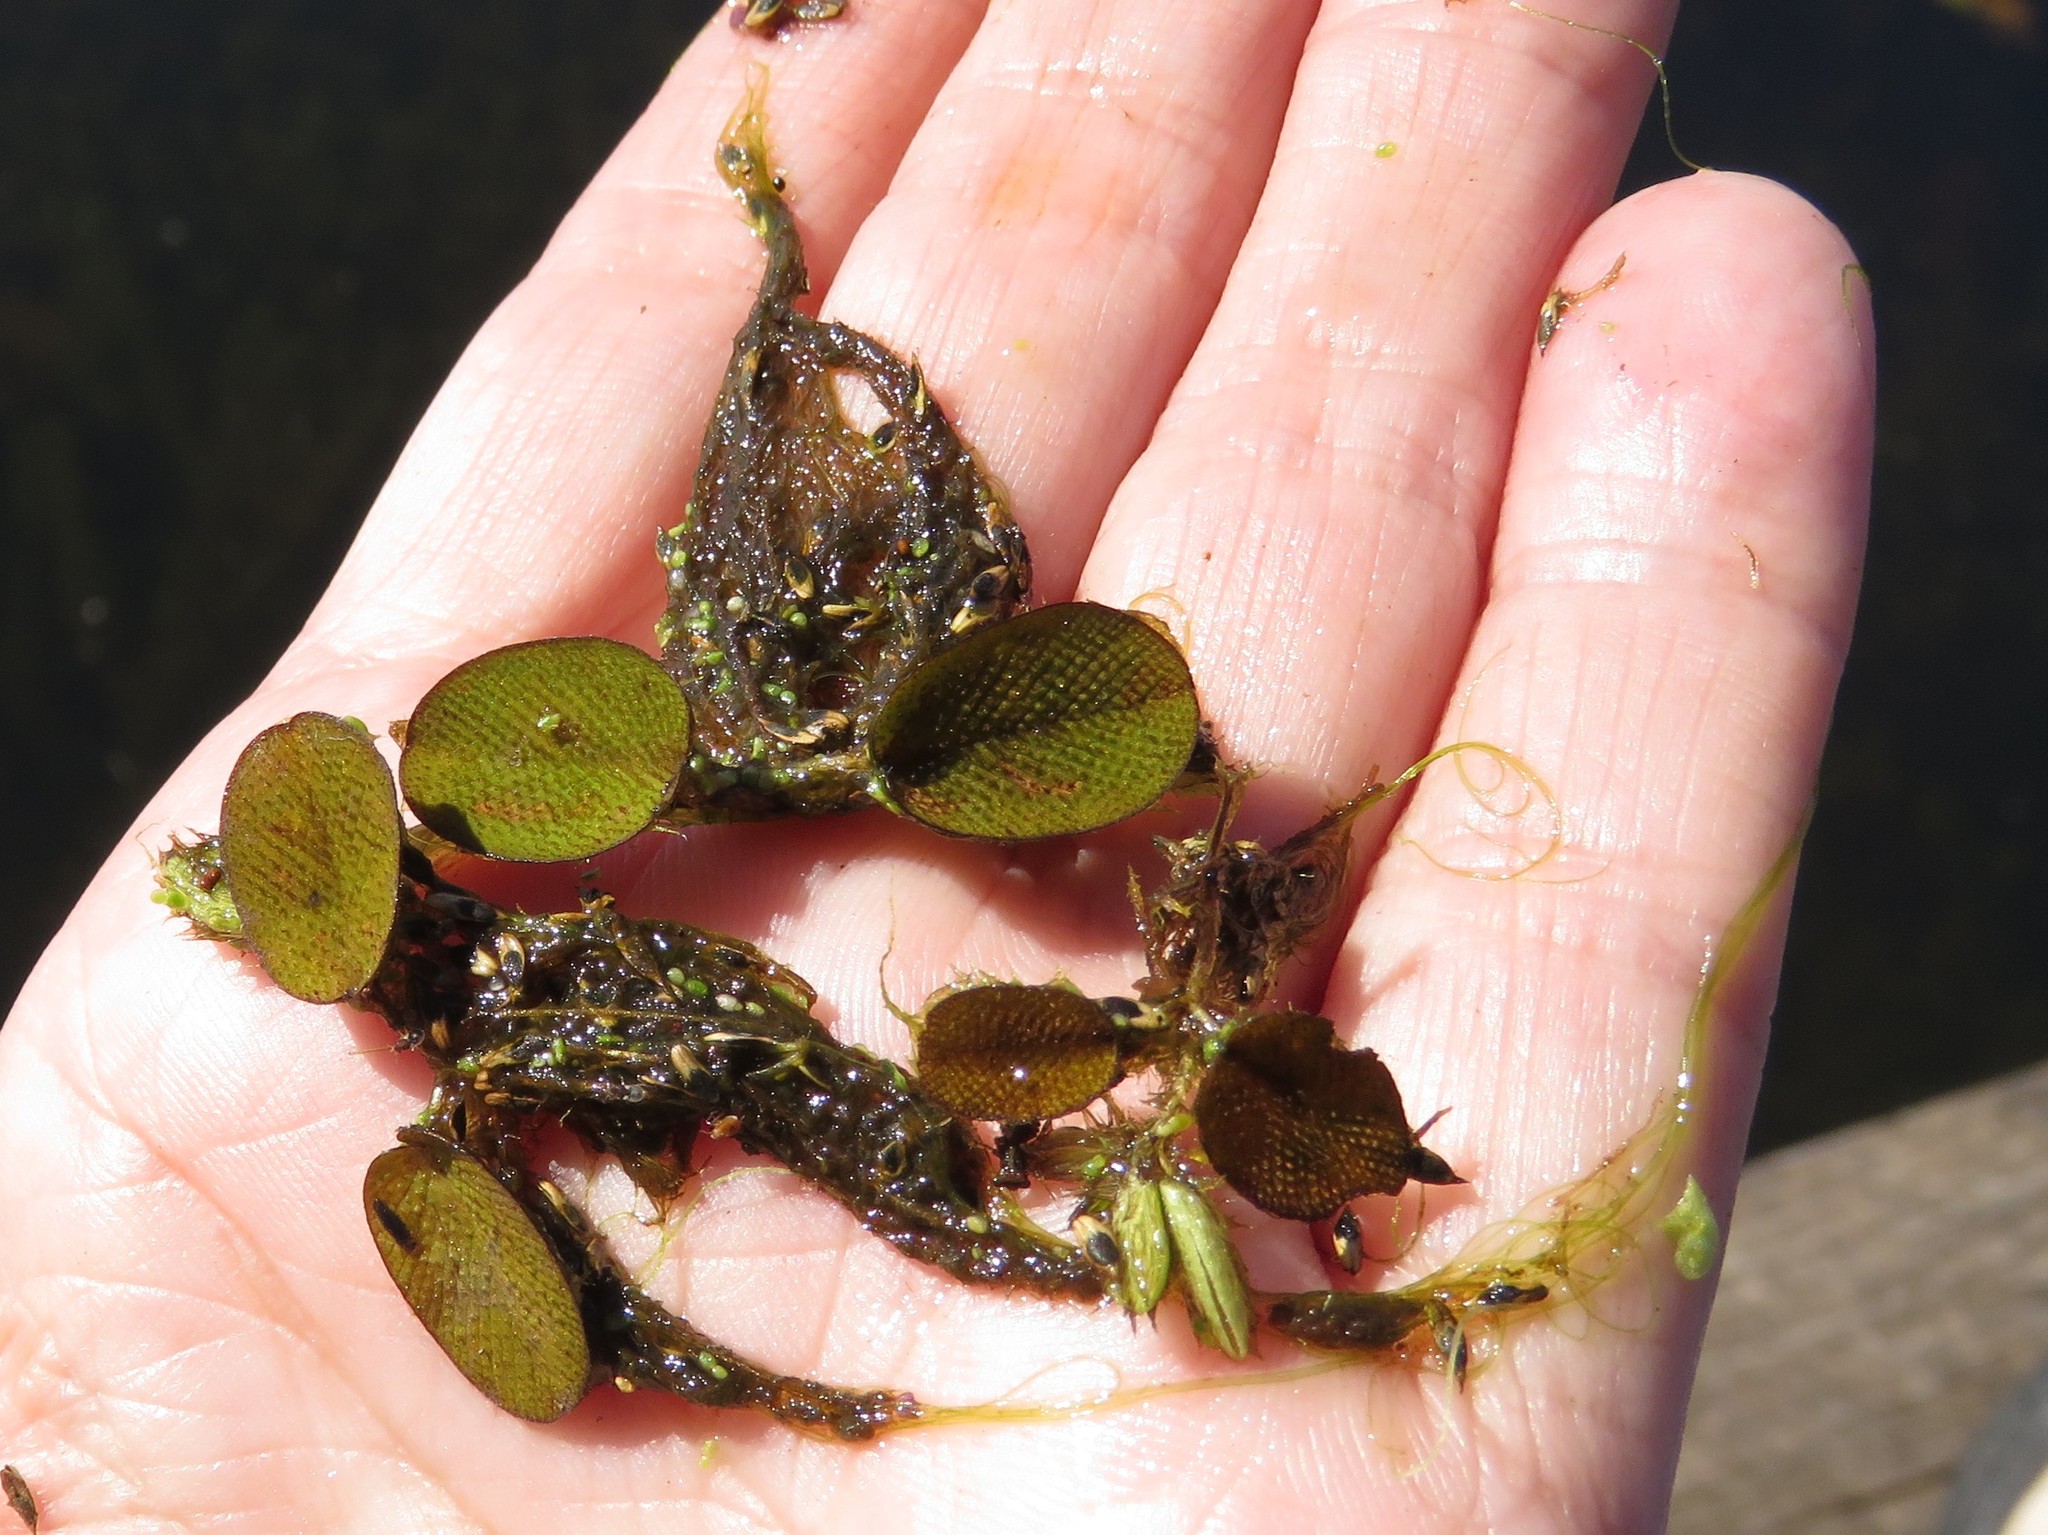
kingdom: Plantae
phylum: Tracheophyta
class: Polypodiopsida
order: Salviniales
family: Salviniaceae
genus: Salvinia
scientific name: Salvinia molesta
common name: Kariba weed
